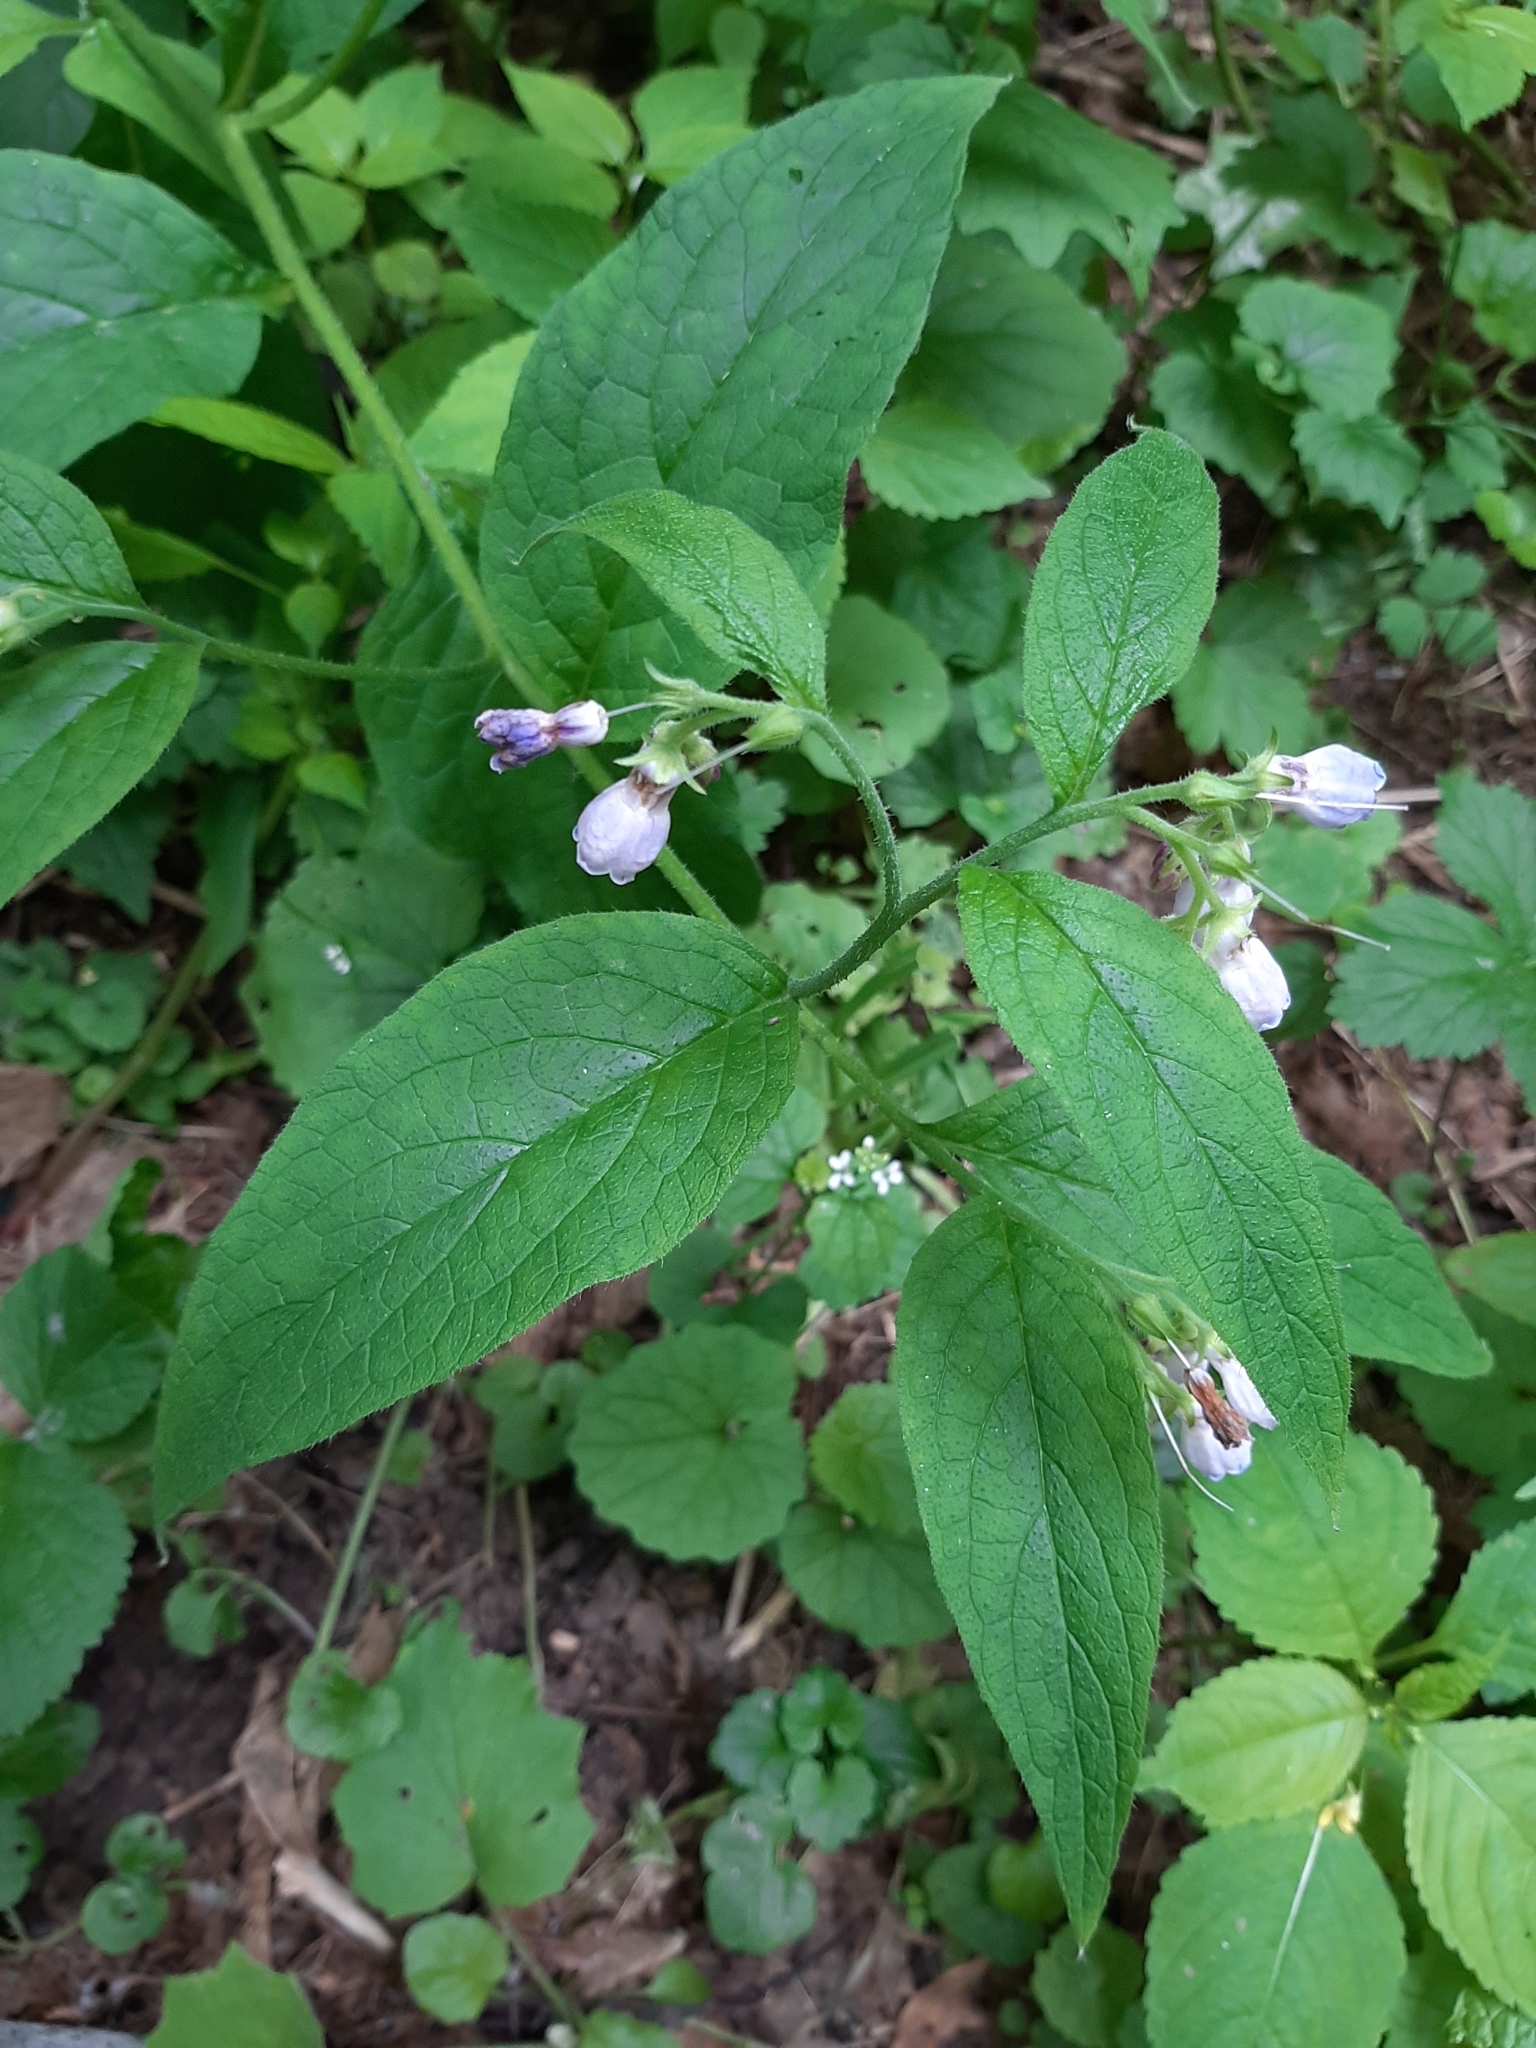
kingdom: Plantae
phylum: Tracheophyta
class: Magnoliopsida
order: Boraginales
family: Boraginaceae
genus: Symphytum
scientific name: Symphytum officinale
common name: Common comfrey
